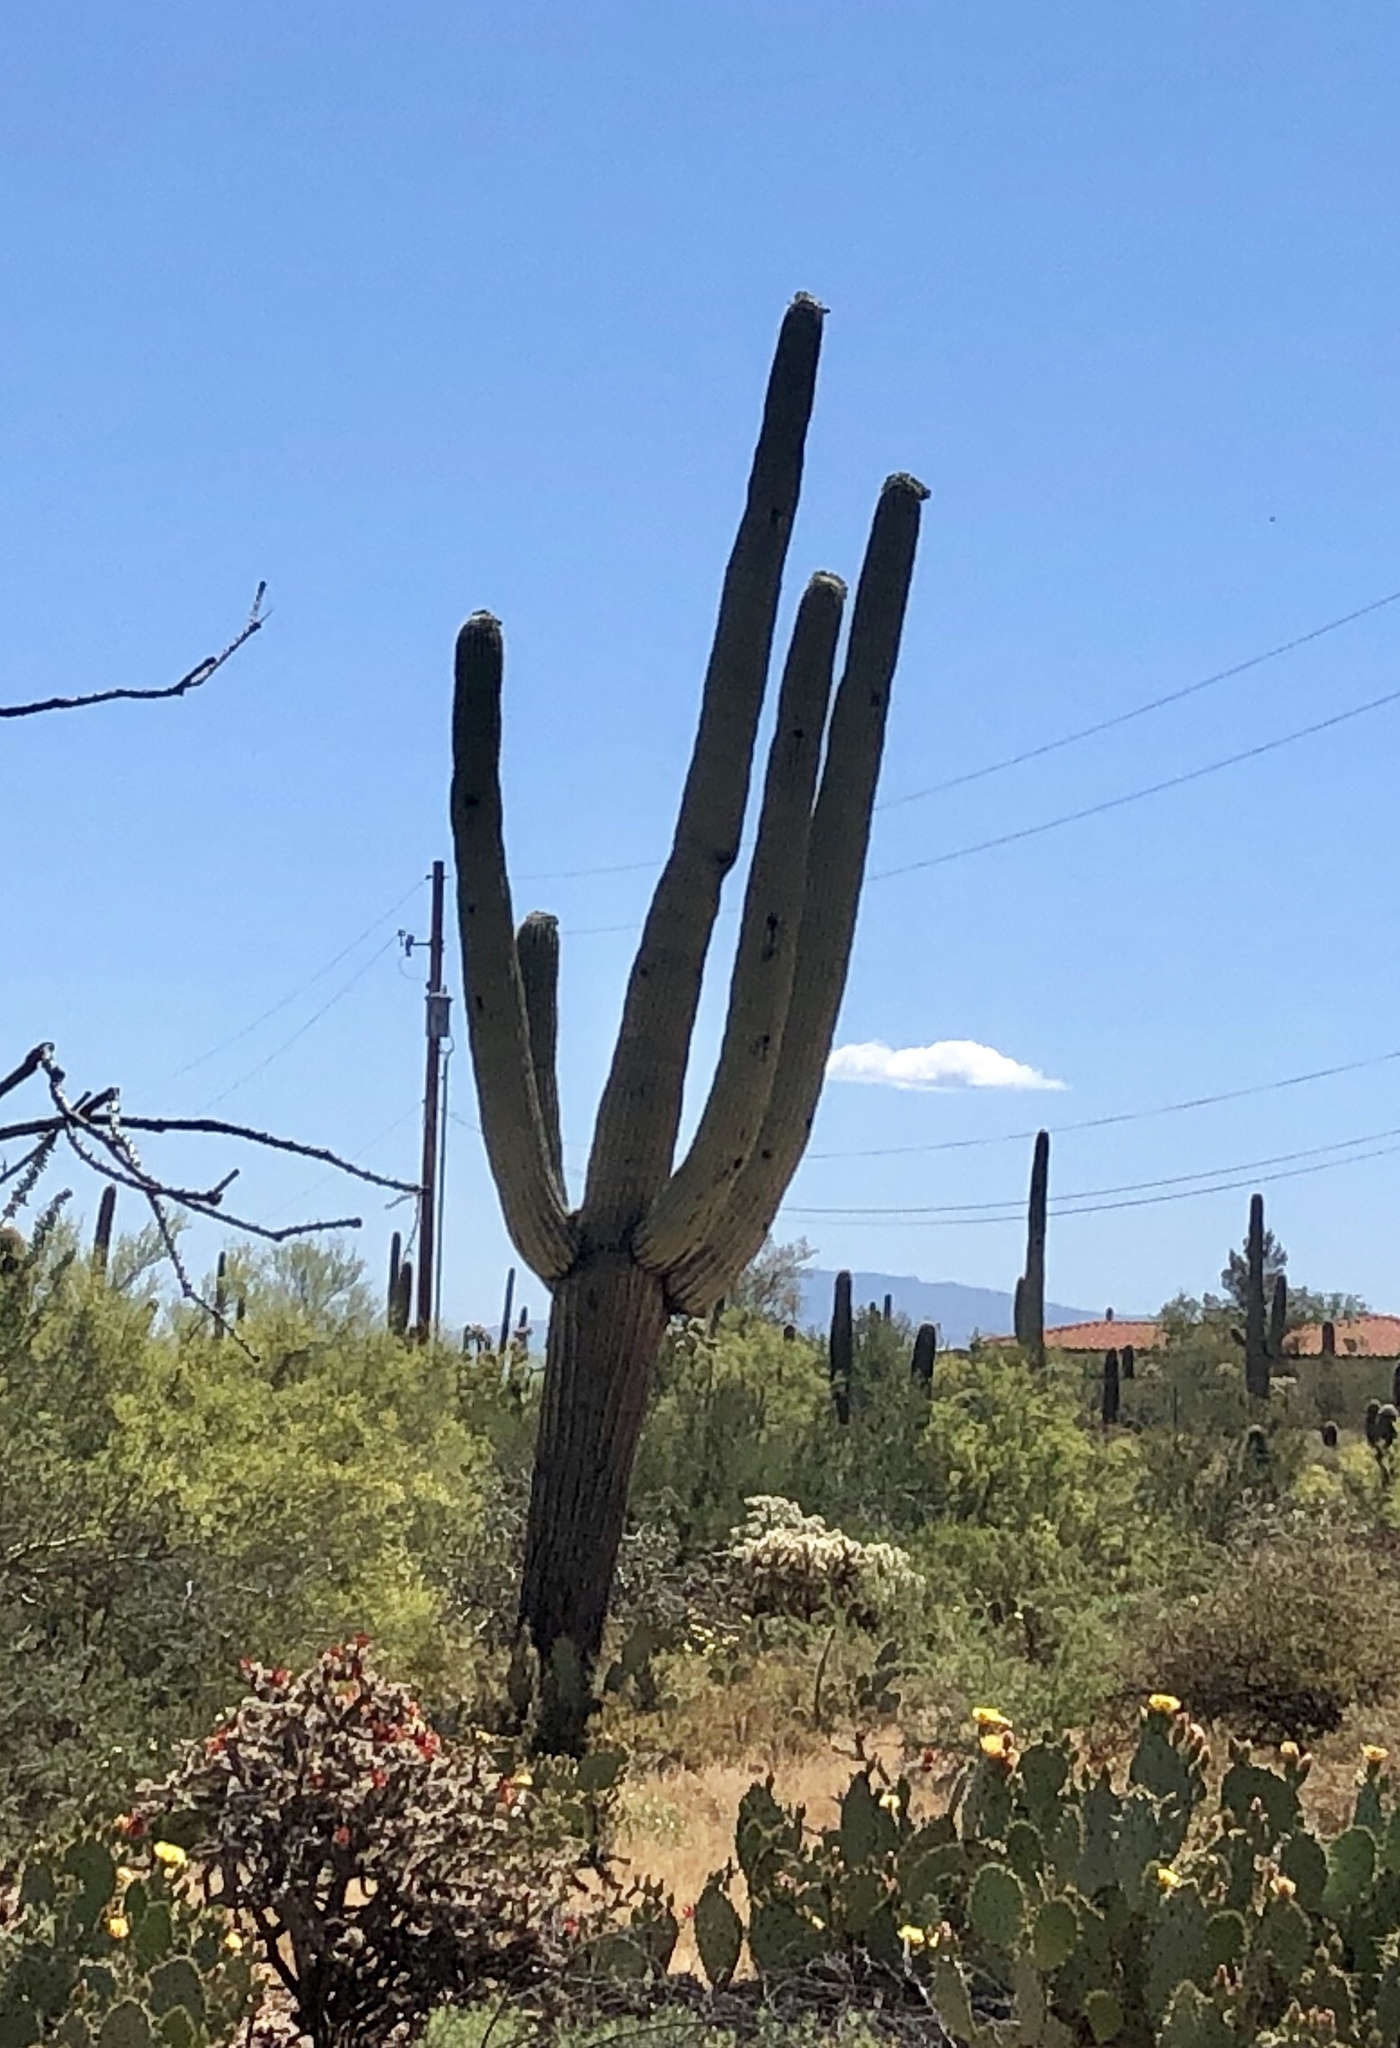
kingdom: Plantae
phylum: Tracheophyta
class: Magnoliopsida
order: Caryophyllales
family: Cactaceae
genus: Carnegiea
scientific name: Carnegiea gigantea
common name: Saguaro
